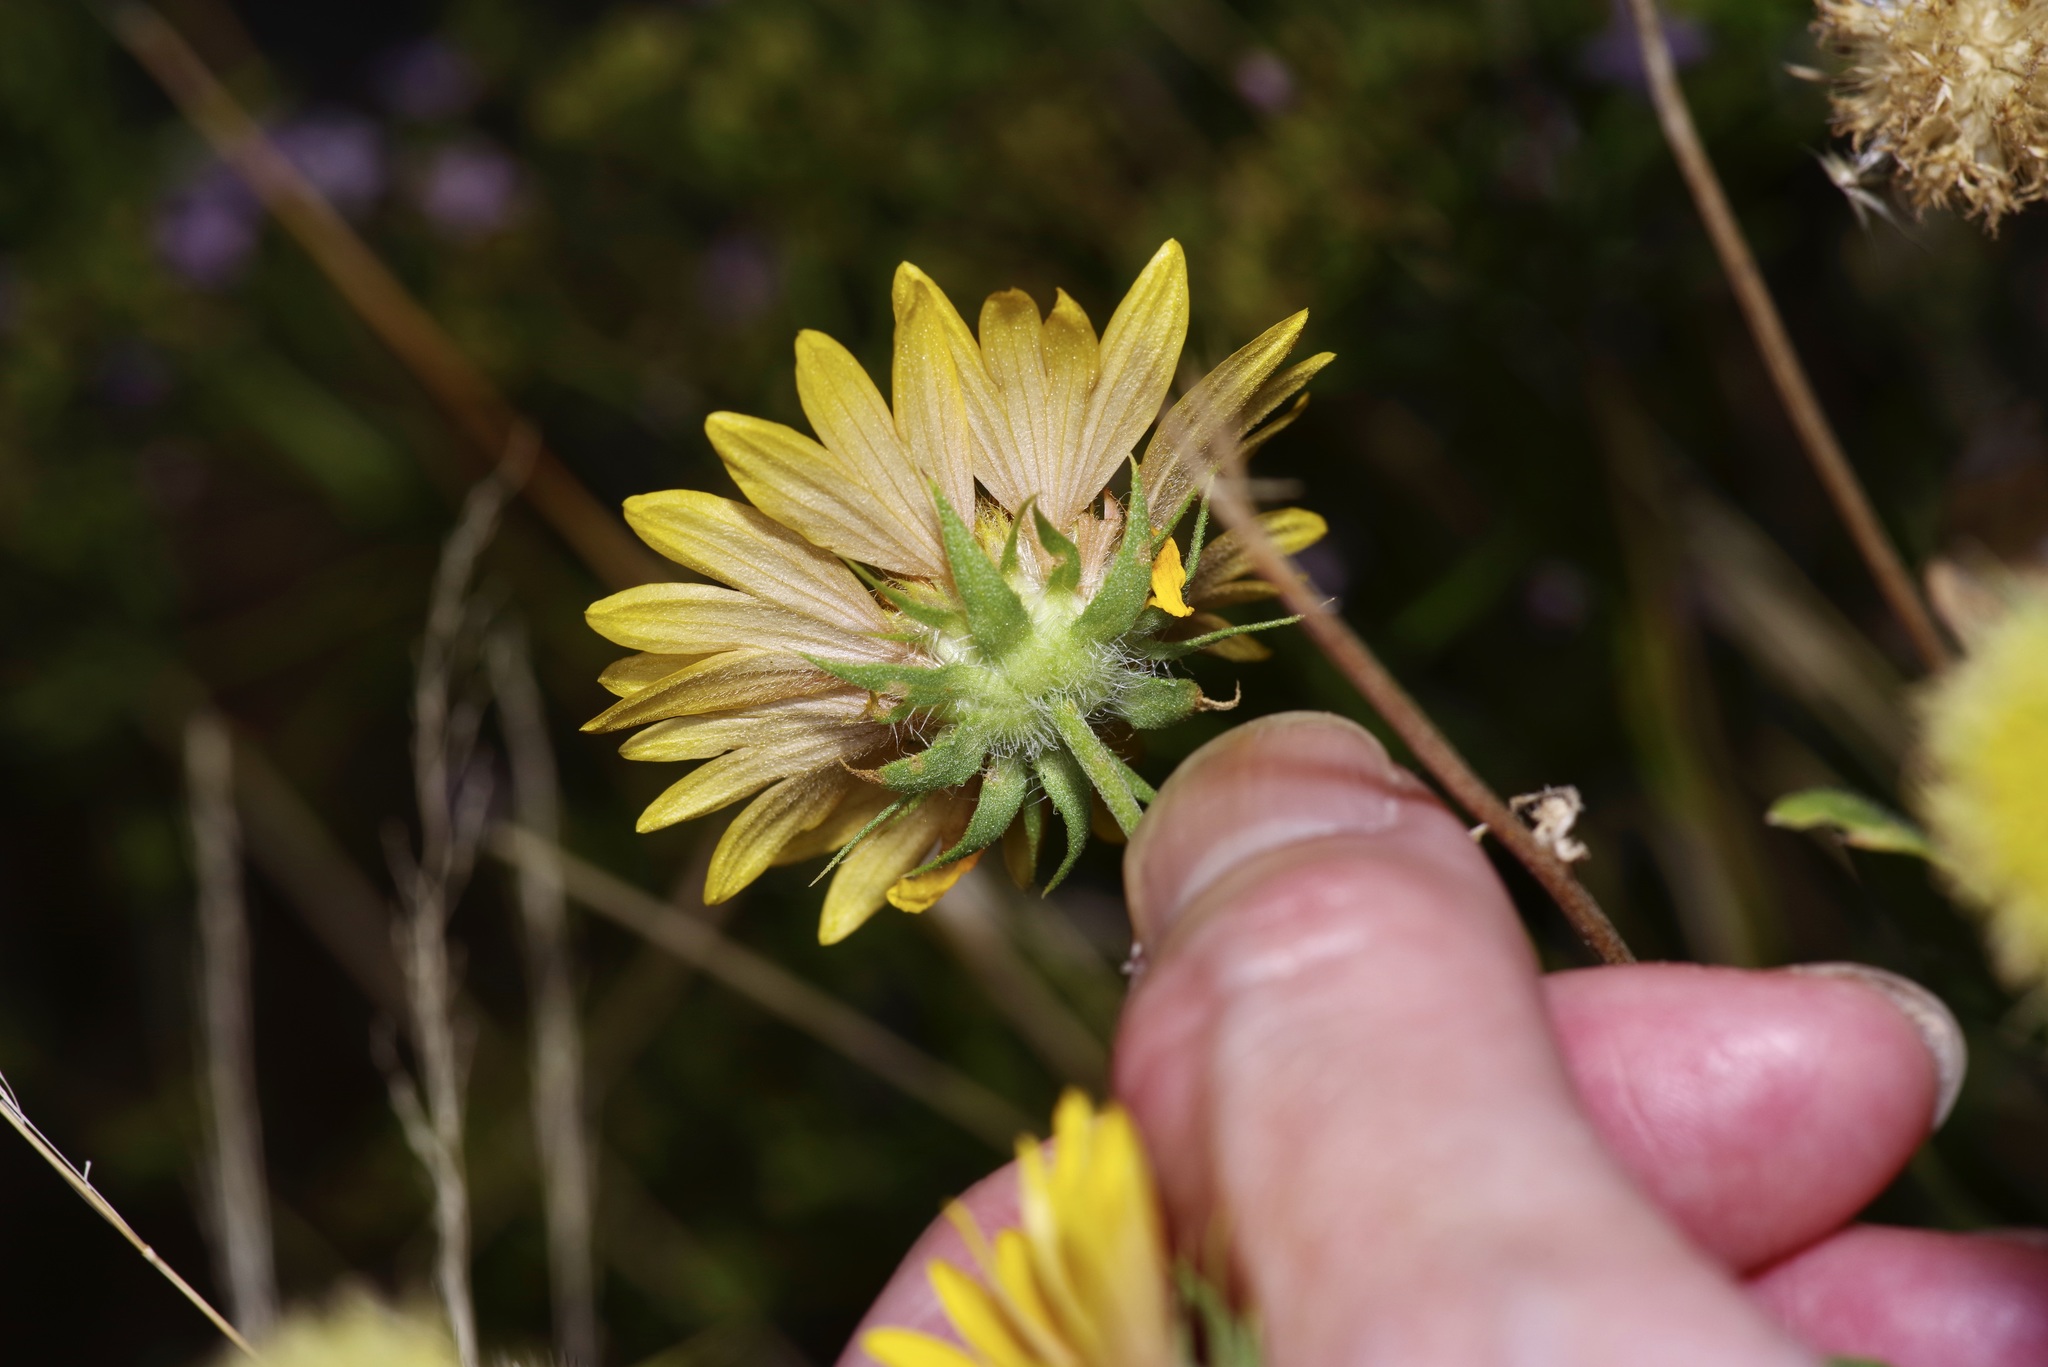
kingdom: Plantae
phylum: Tracheophyta
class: Magnoliopsida
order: Asterales
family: Asteraceae
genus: Gaillardia
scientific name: Gaillardia pulchella
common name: Firewheel
